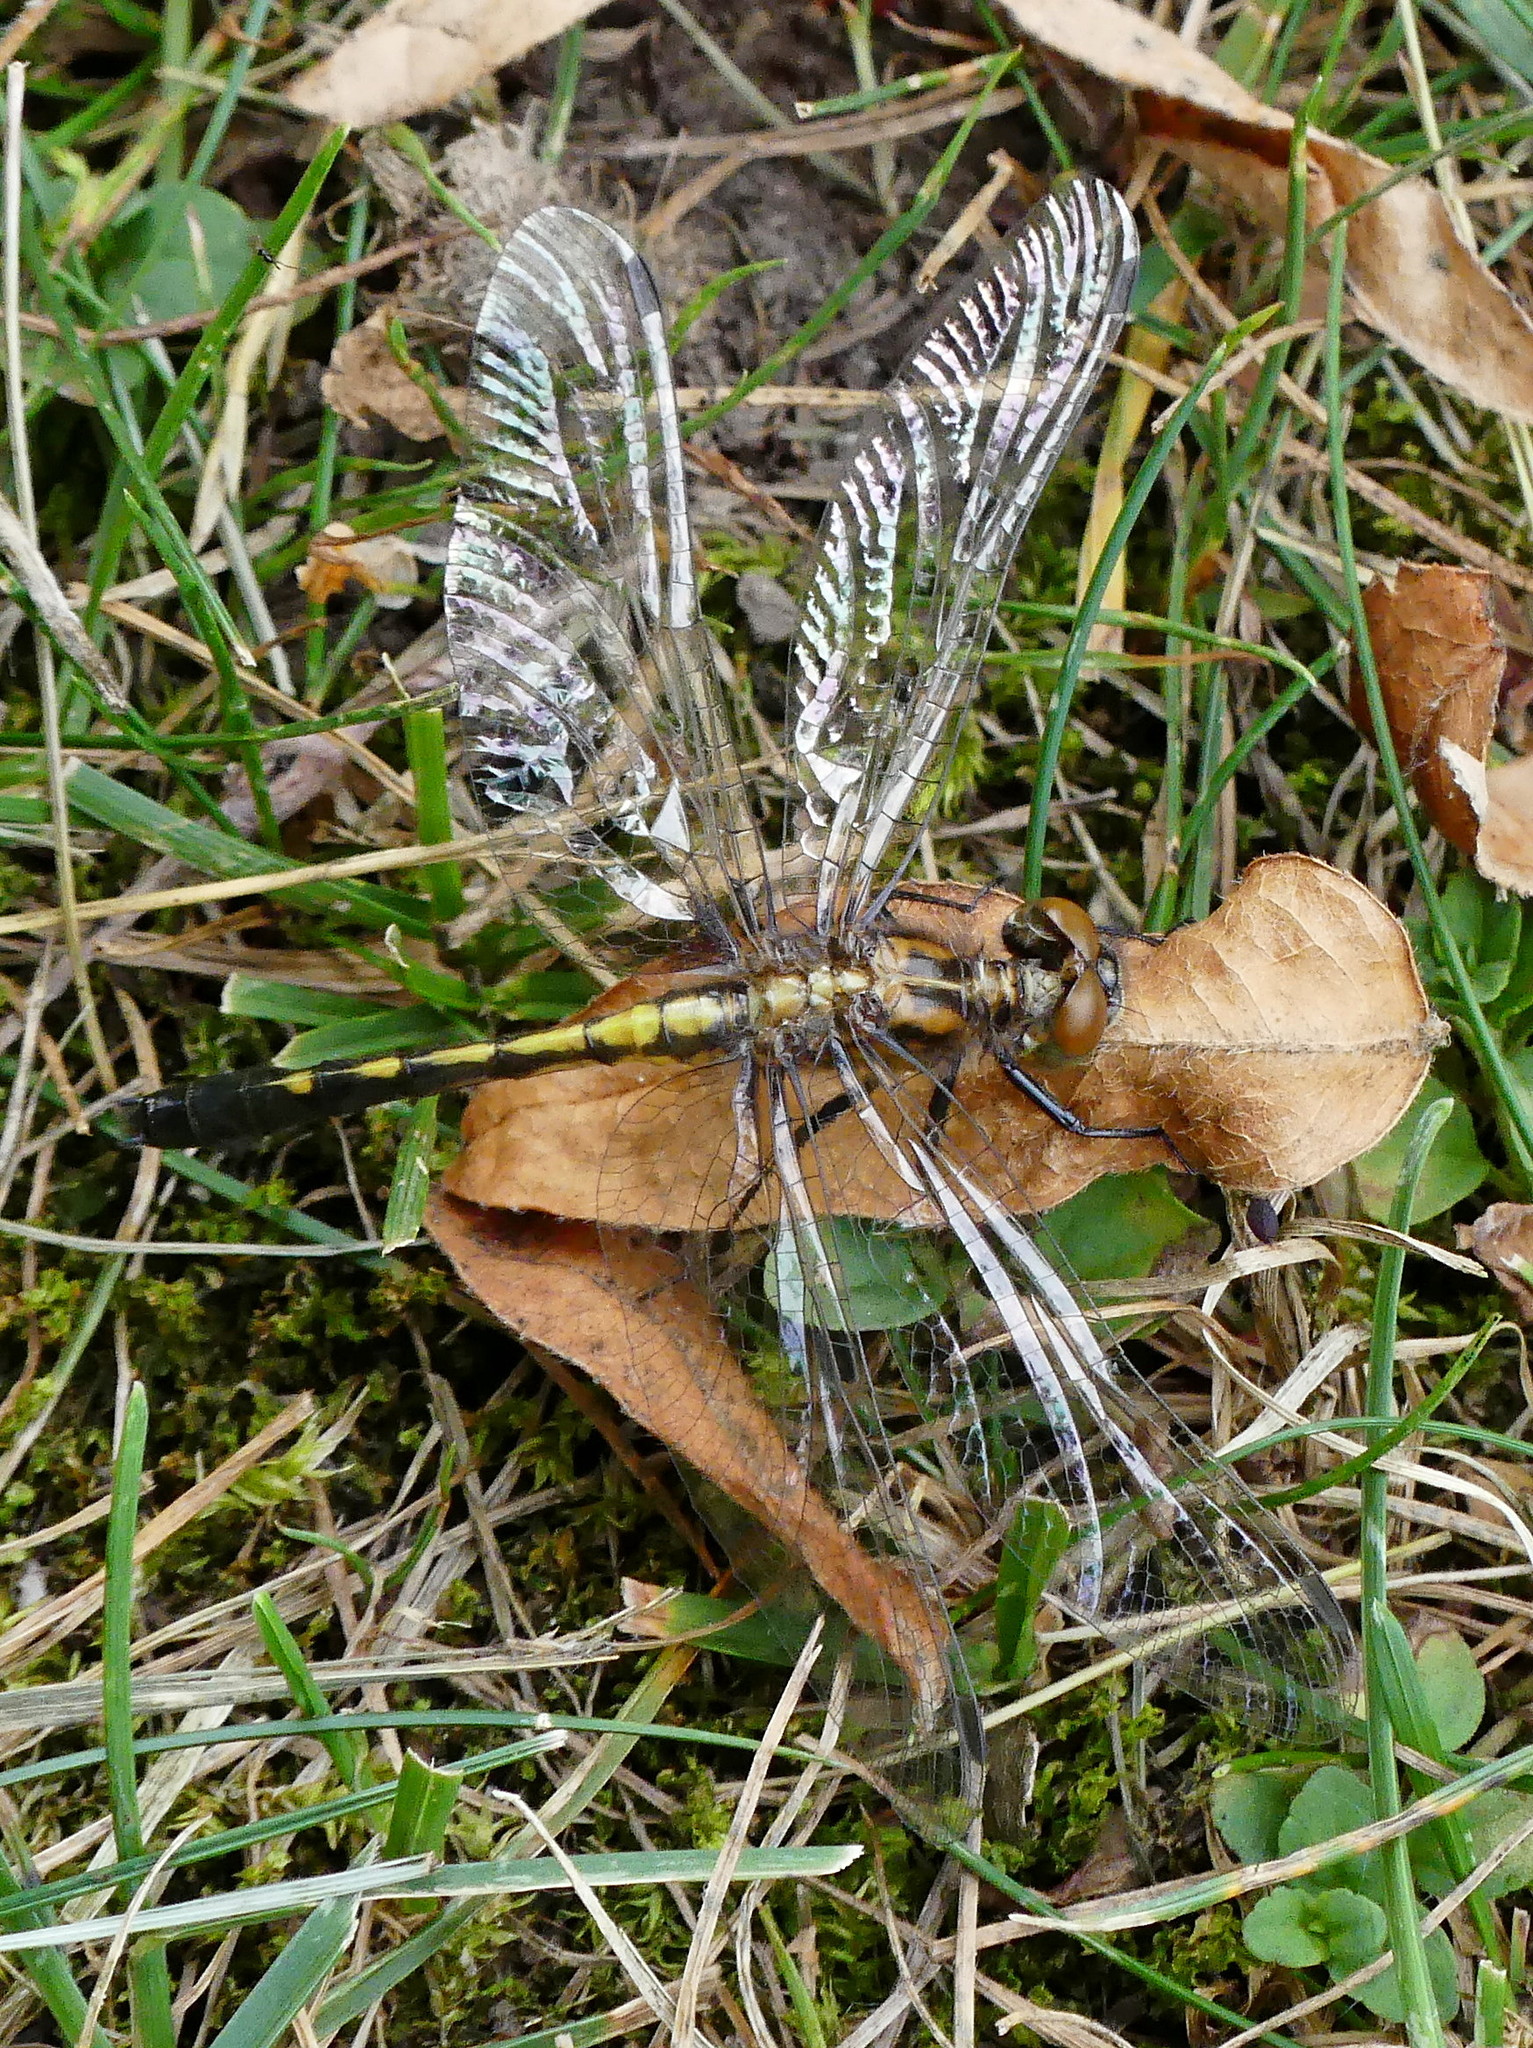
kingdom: Animalia
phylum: Arthropoda
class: Insecta
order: Odonata
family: Libellulidae
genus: Leucorrhinia
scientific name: Leucorrhinia intacta
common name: Dot-tailed whiteface
